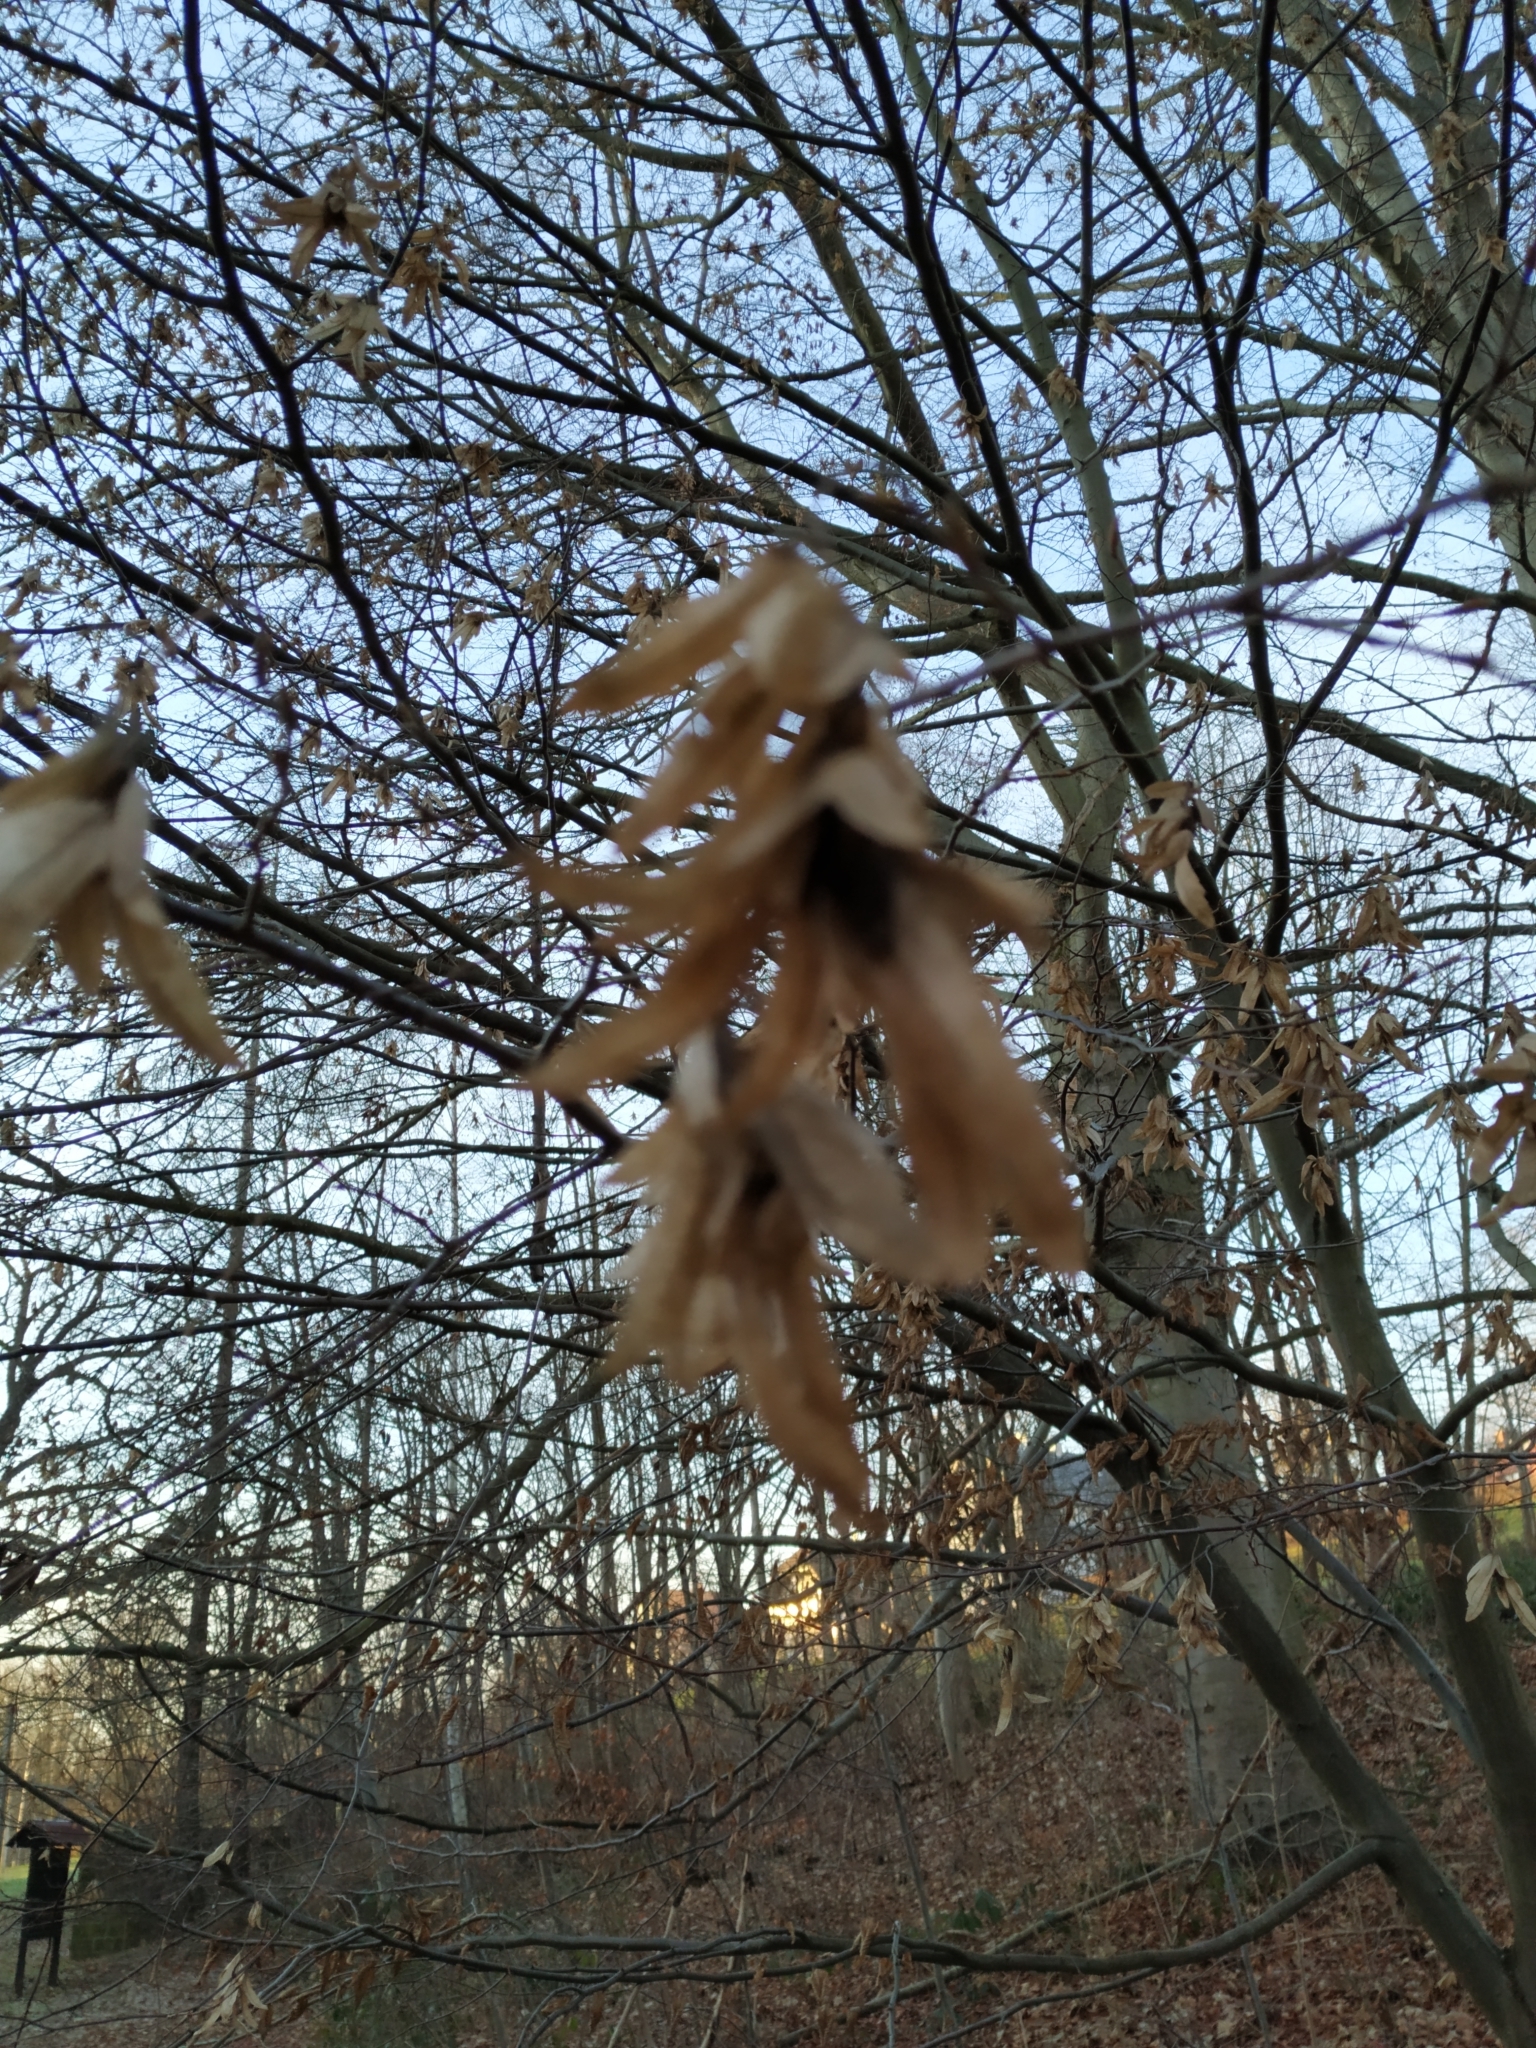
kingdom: Plantae
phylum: Tracheophyta
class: Magnoliopsida
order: Fagales
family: Betulaceae
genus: Carpinus
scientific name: Carpinus betulus
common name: Hornbeam
